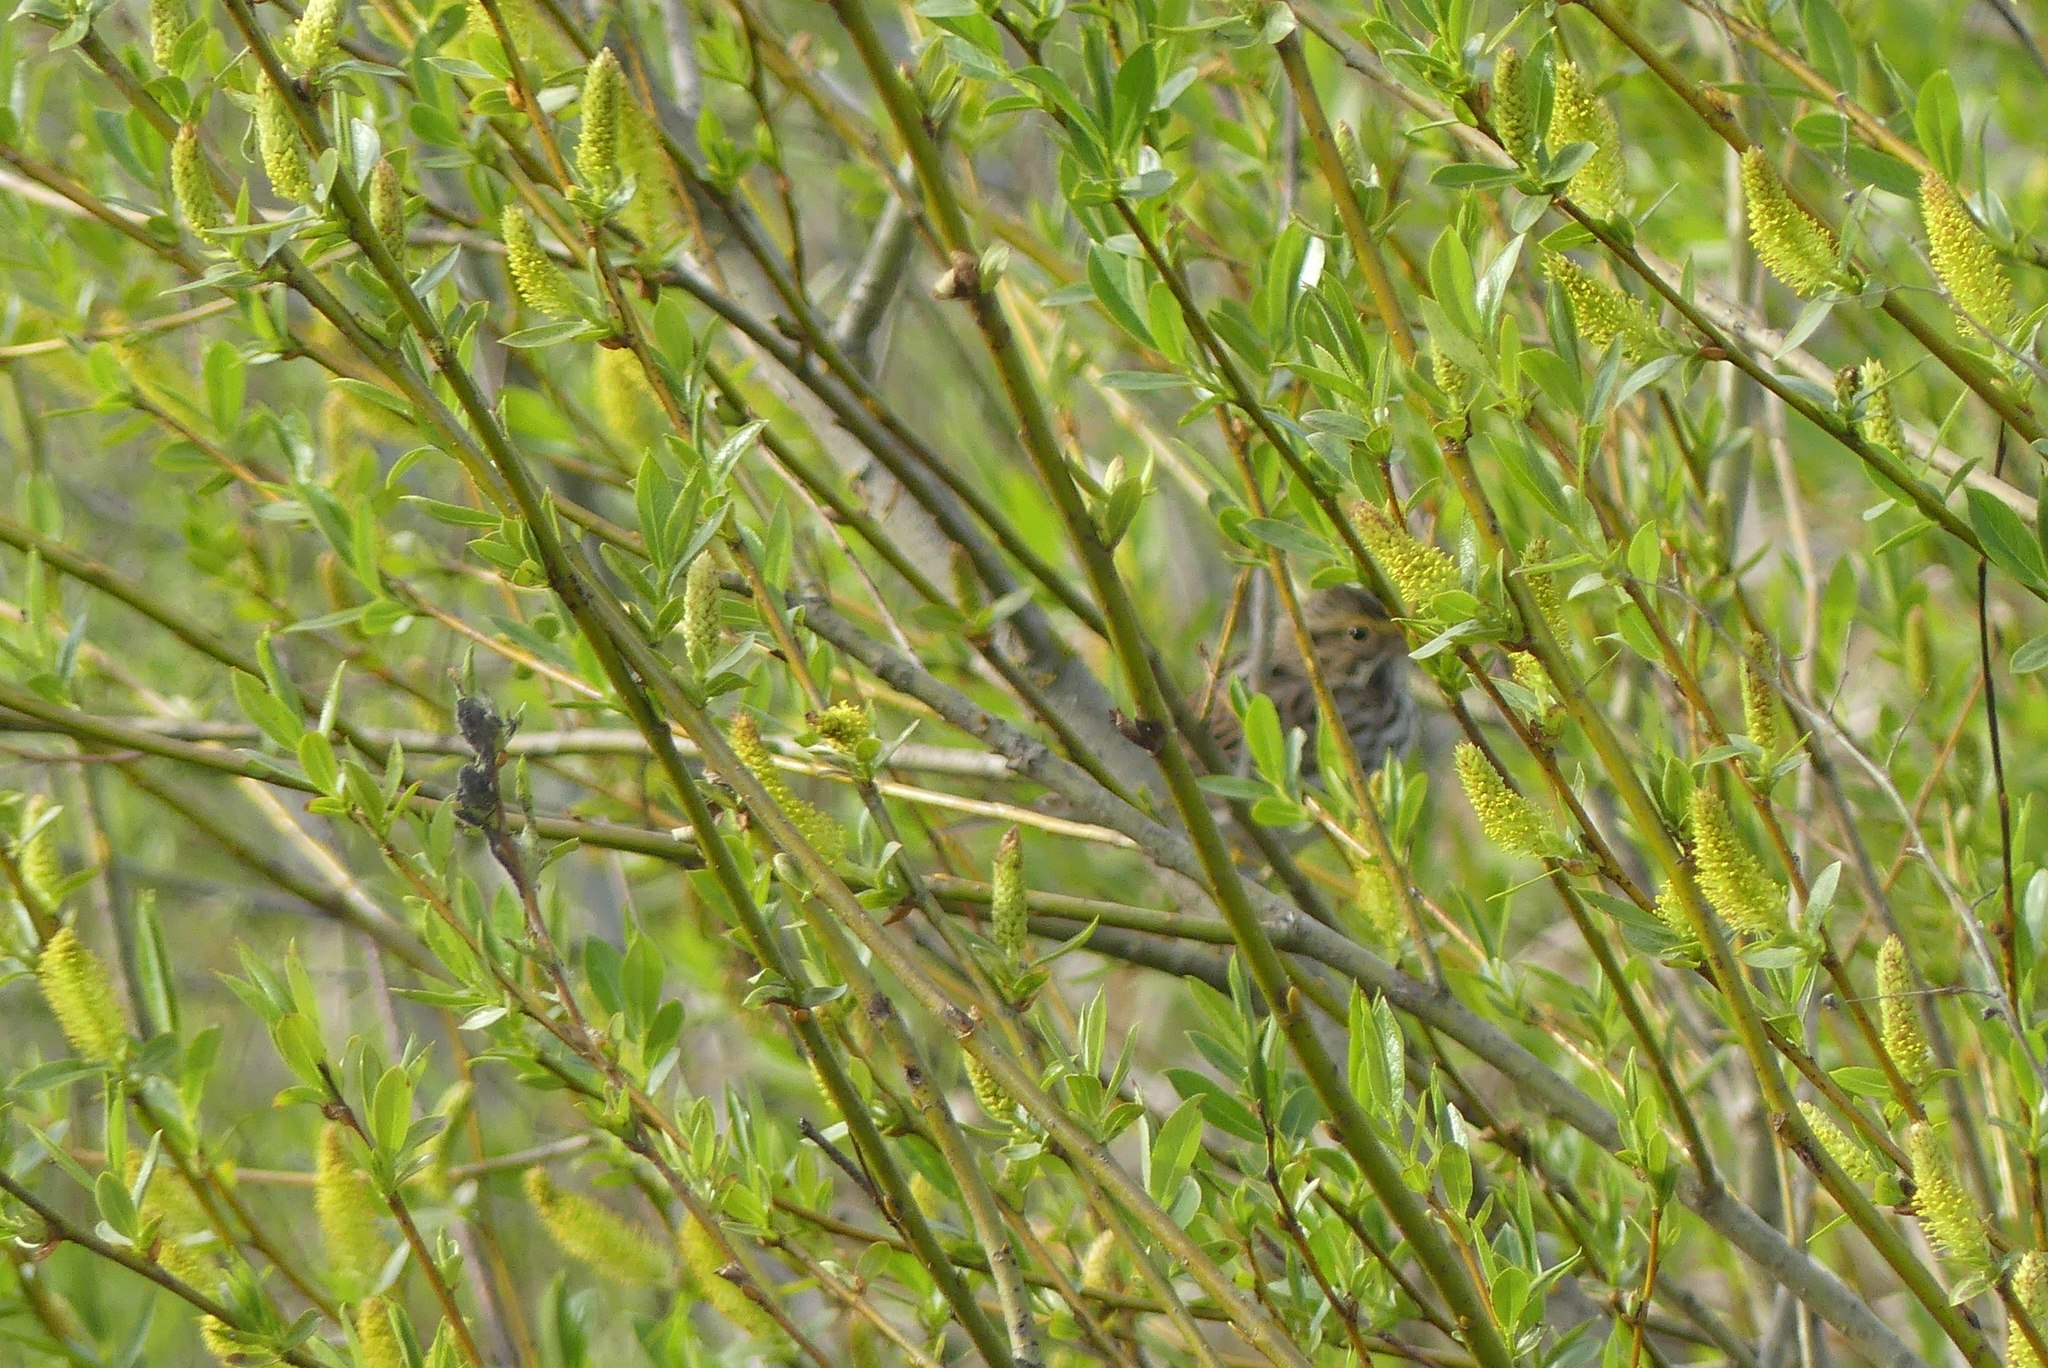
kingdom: Animalia
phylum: Chordata
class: Aves
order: Passeriformes
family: Passerellidae
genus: Passerculus
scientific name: Passerculus sandwichensis
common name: Savannah sparrow
